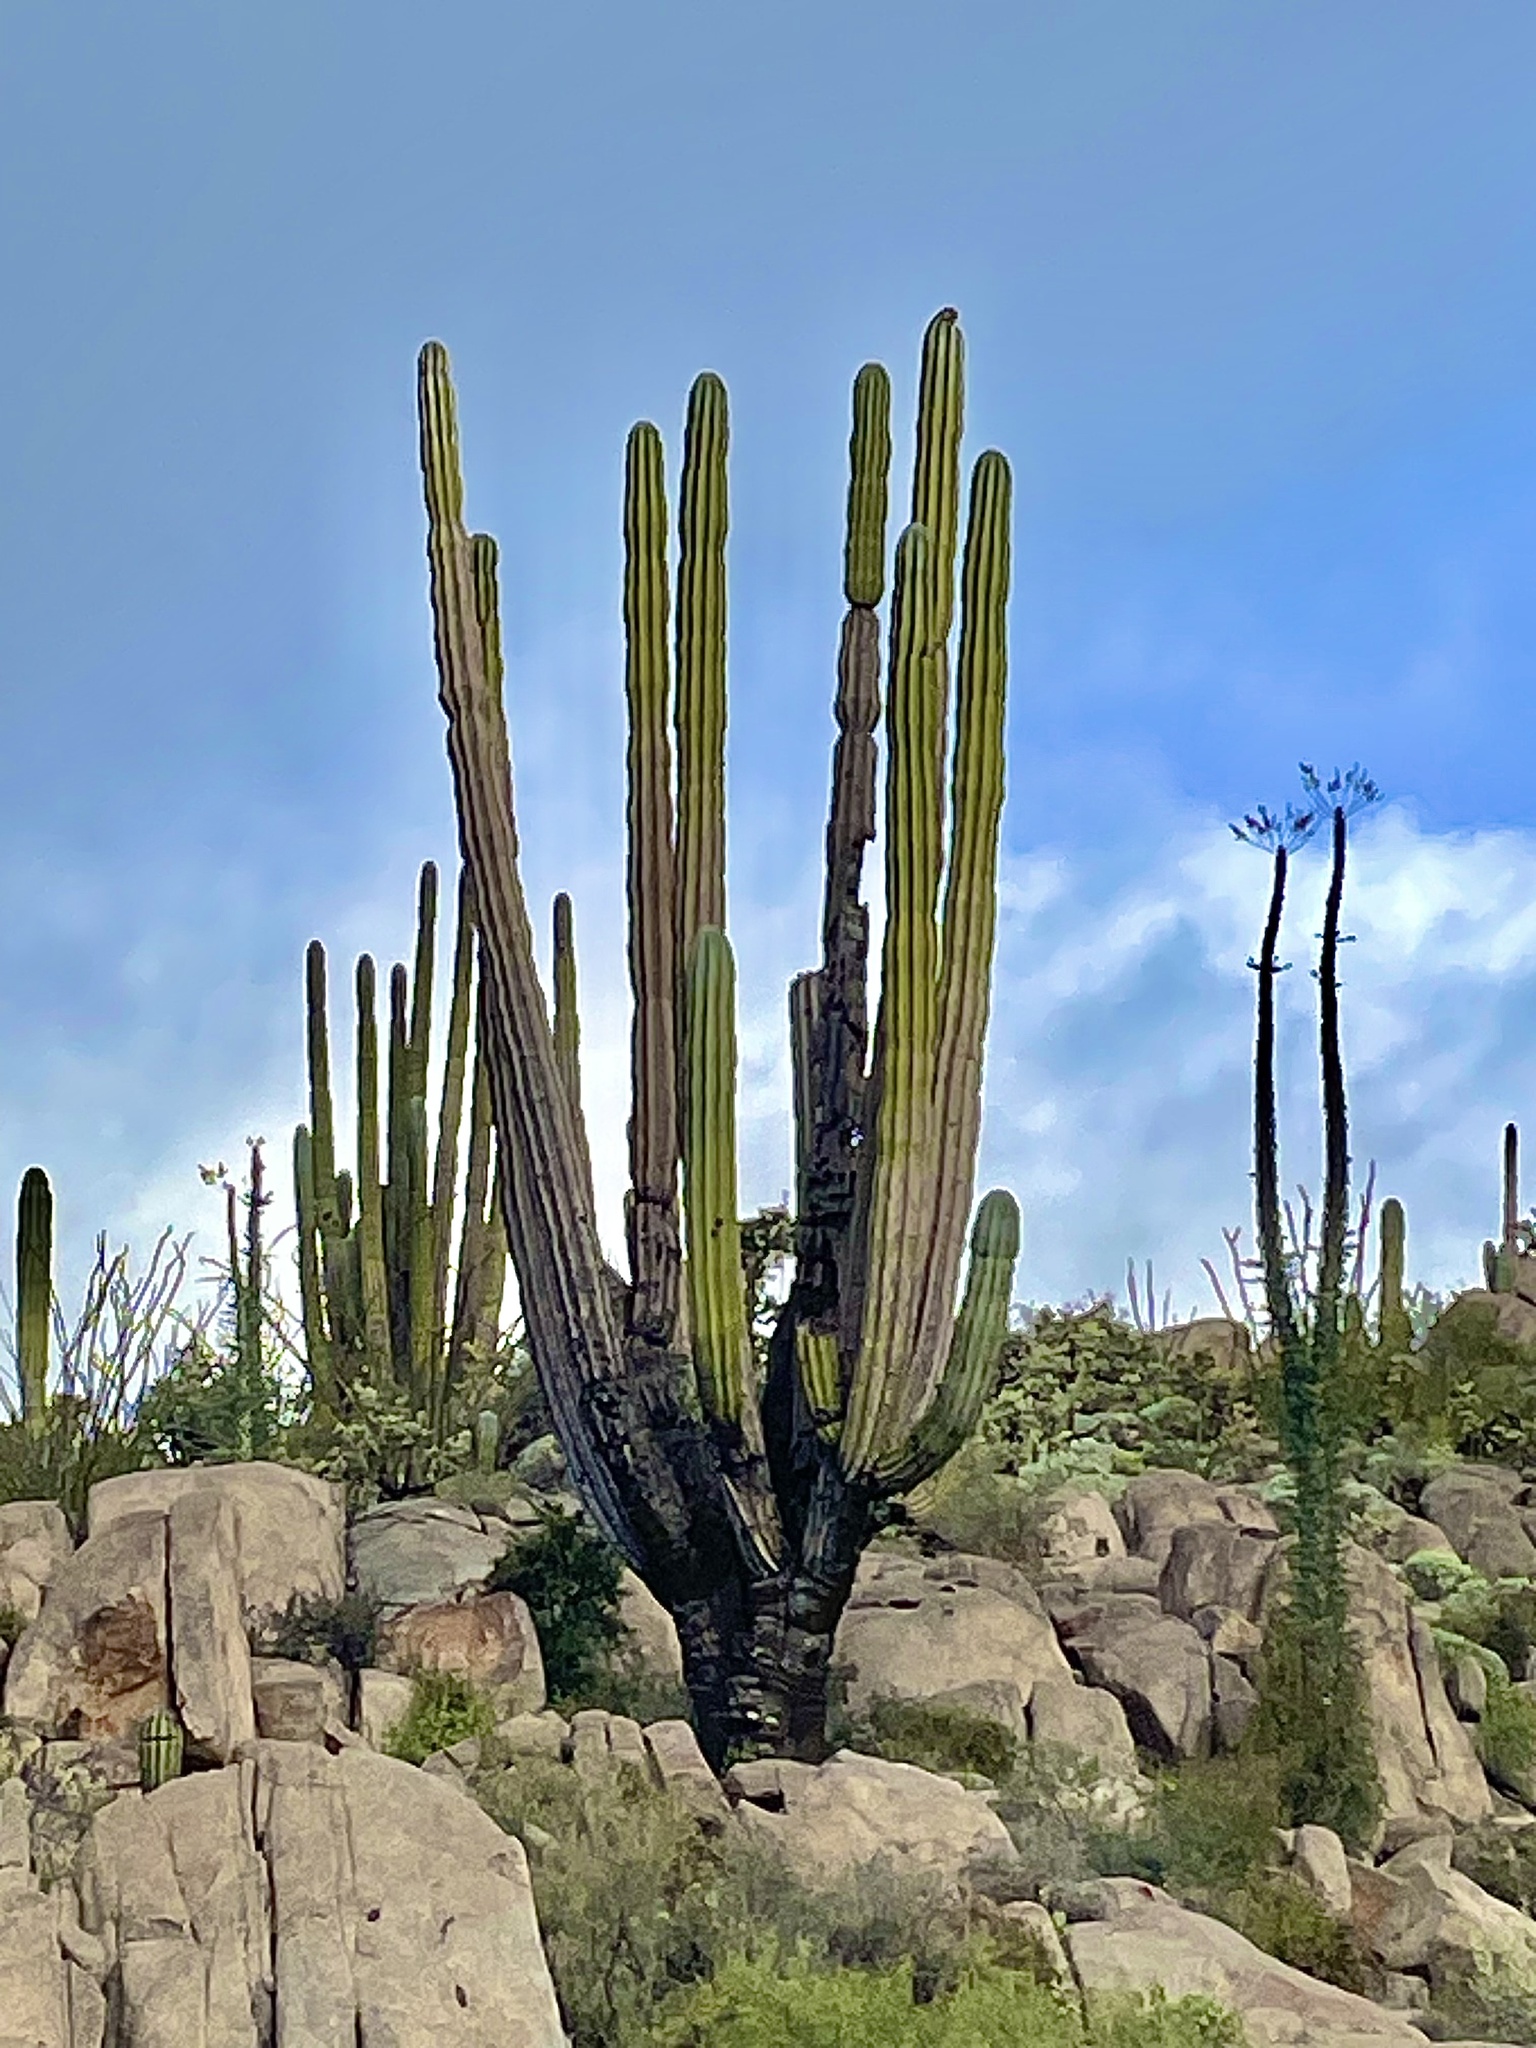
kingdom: Plantae
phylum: Tracheophyta
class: Magnoliopsida
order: Caryophyllales
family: Cactaceae
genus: Pachycereus
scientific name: Pachycereus pringlei
